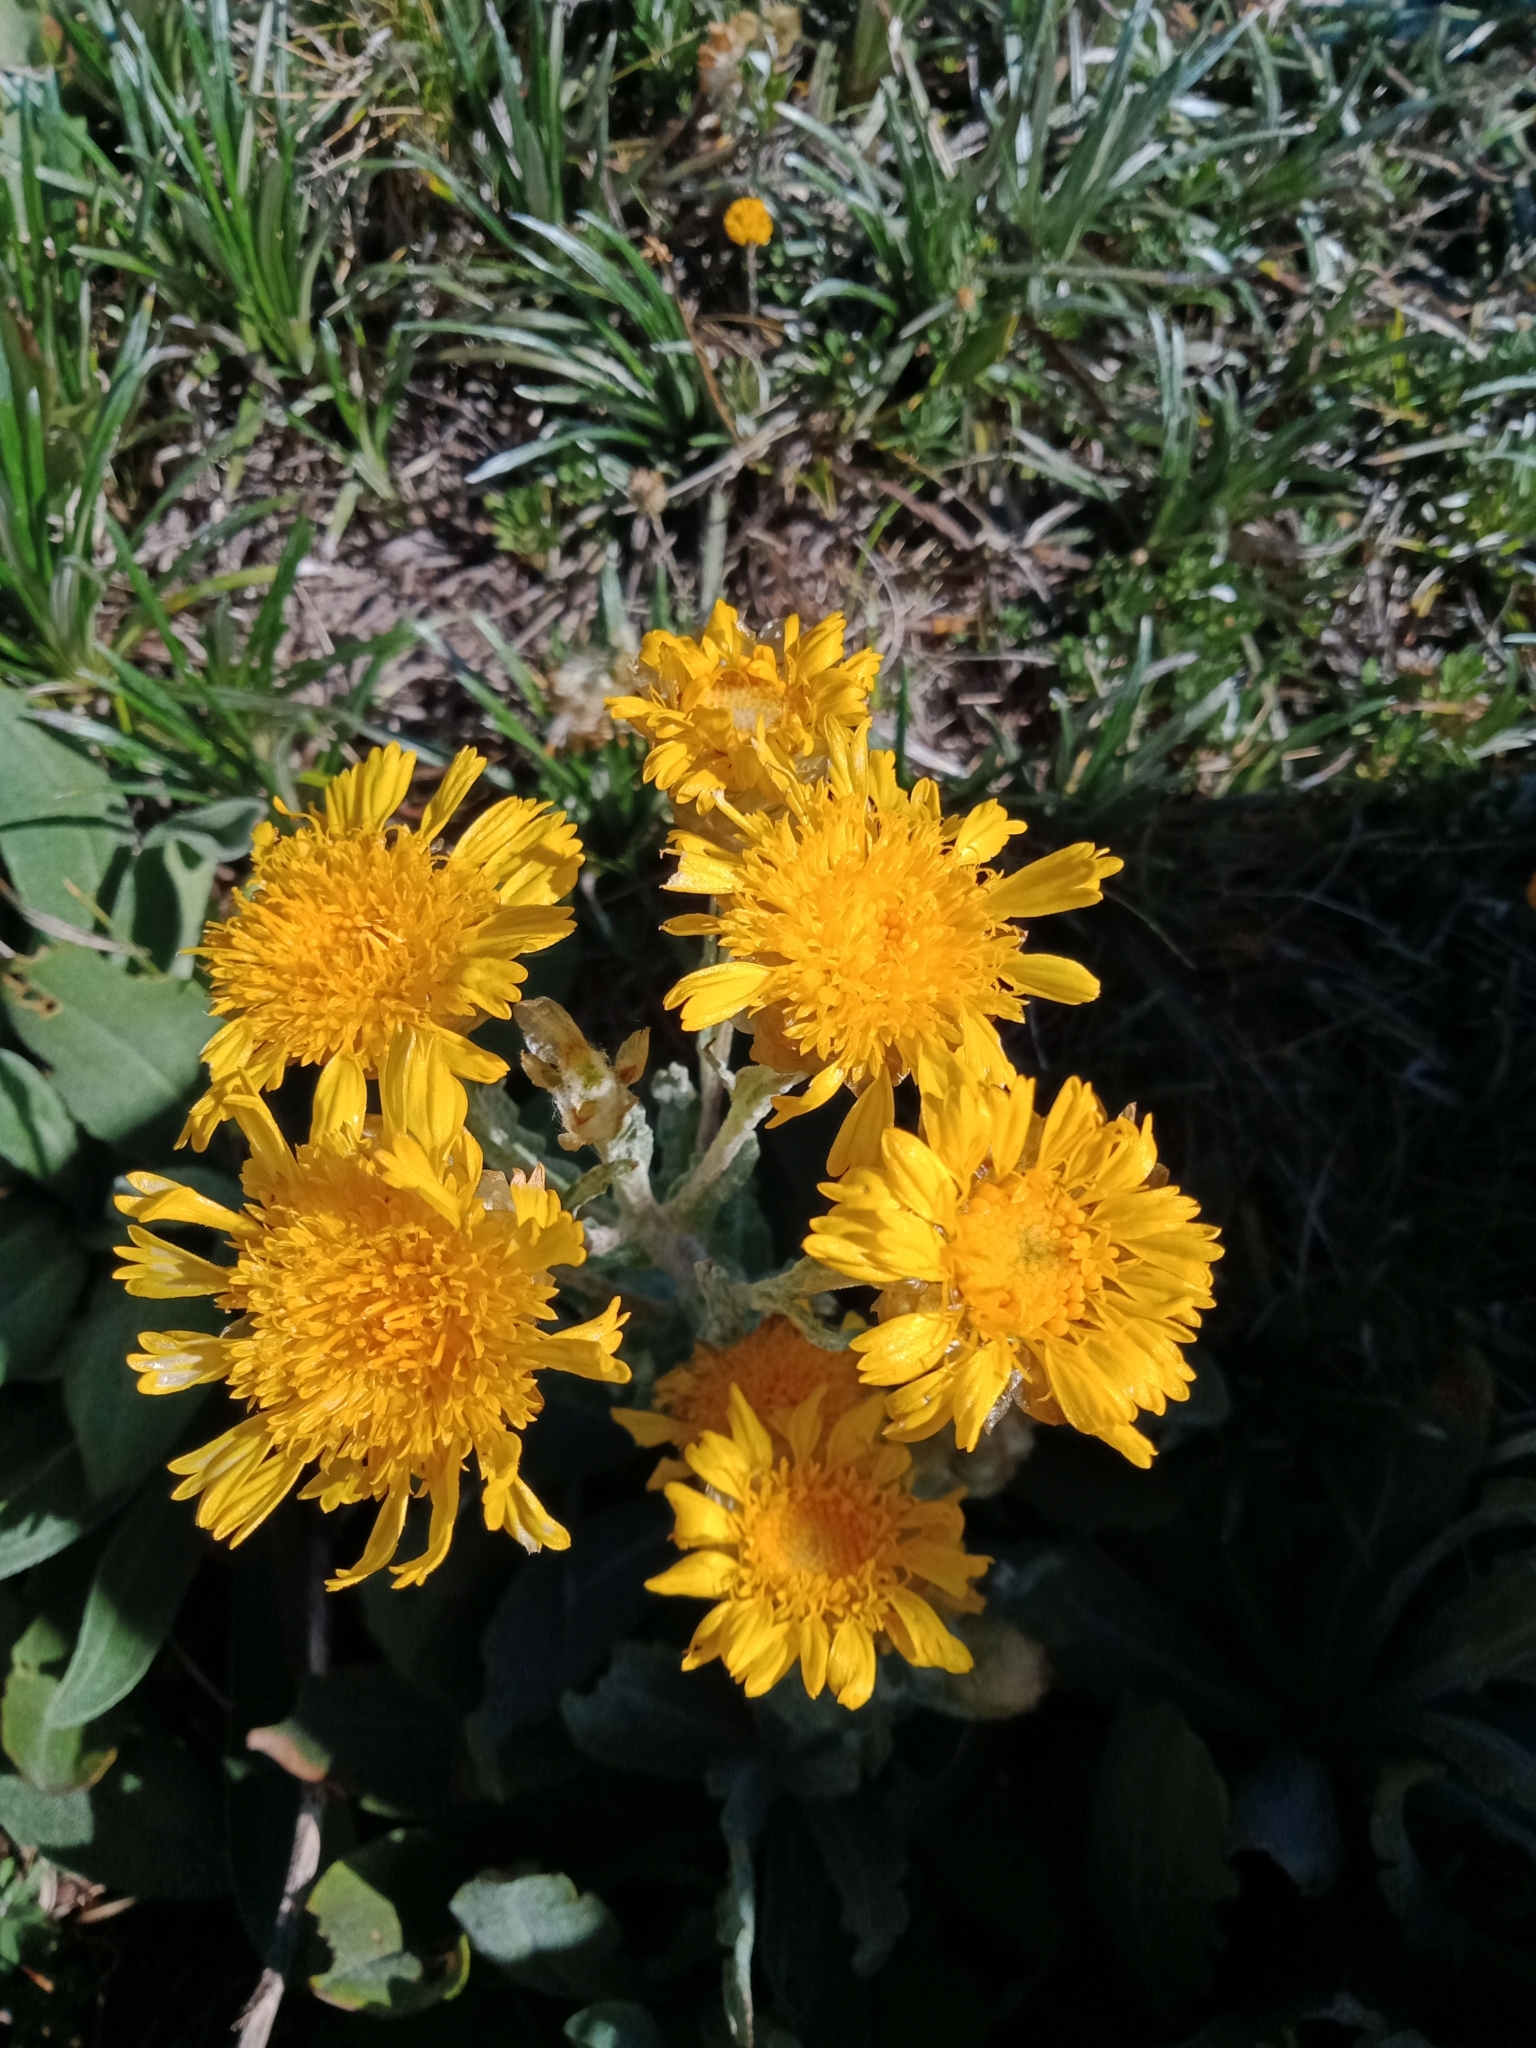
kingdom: Plantae
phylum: Tracheophyta
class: Magnoliopsida
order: Asterales
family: Asteraceae
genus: Podolepis
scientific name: Podolepis laciniata
